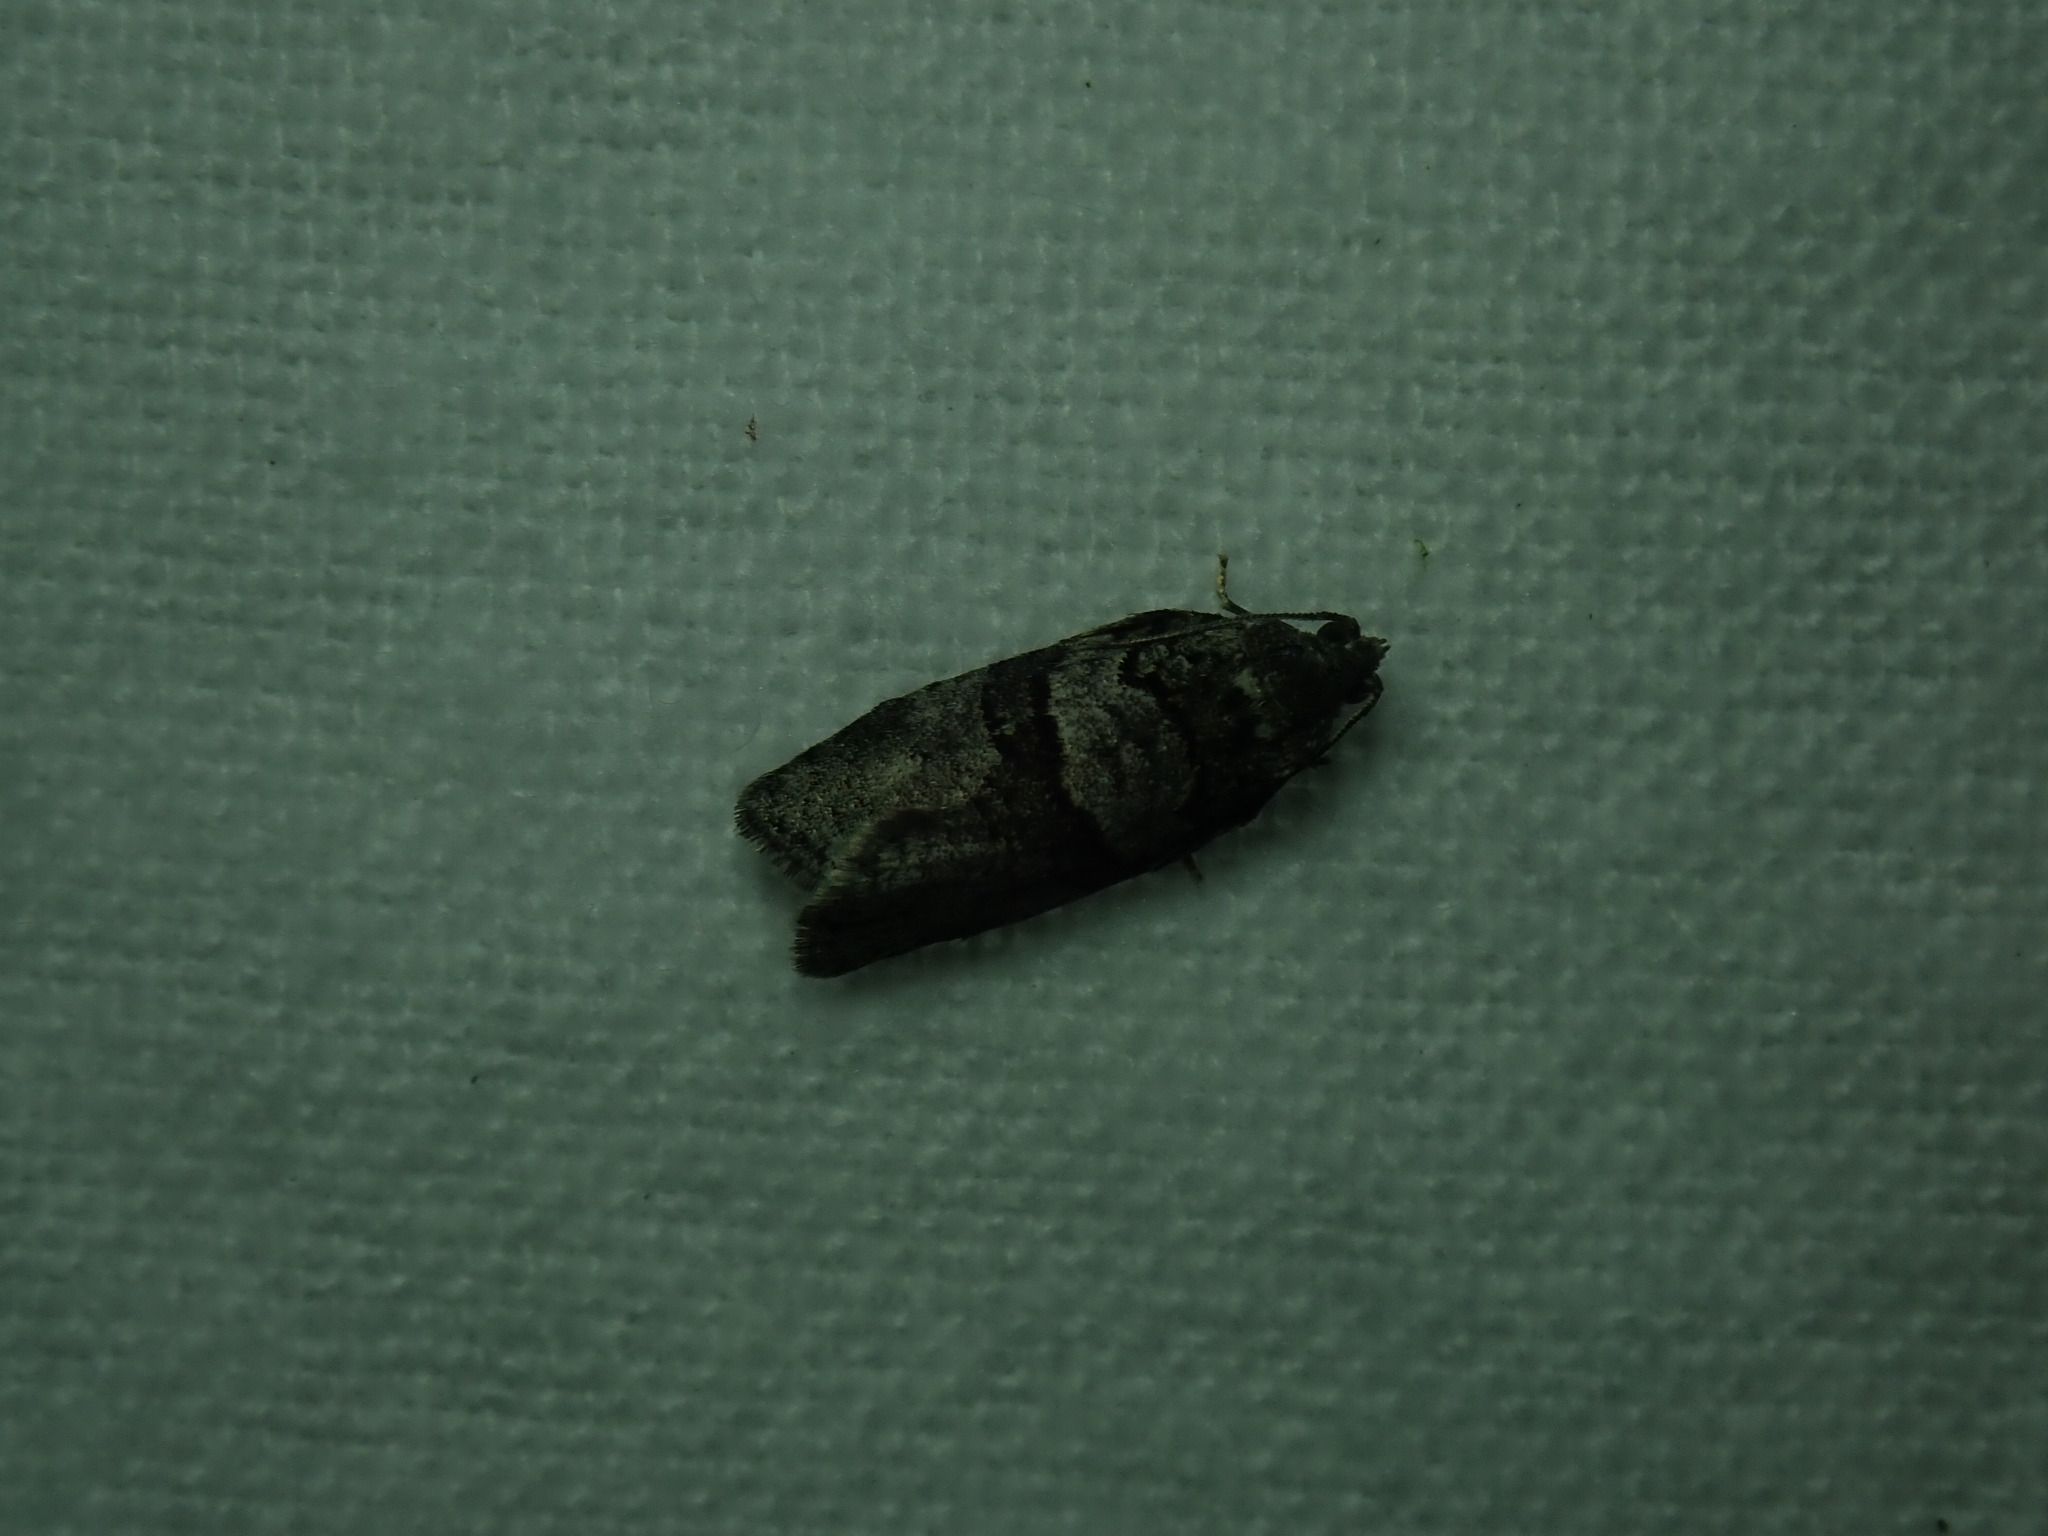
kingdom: Animalia
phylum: Arthropoda
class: Insecta
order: Lepidoptera
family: Tortricidae
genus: Syndemis
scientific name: Syndemis afflictana
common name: Gray leafroller moth
